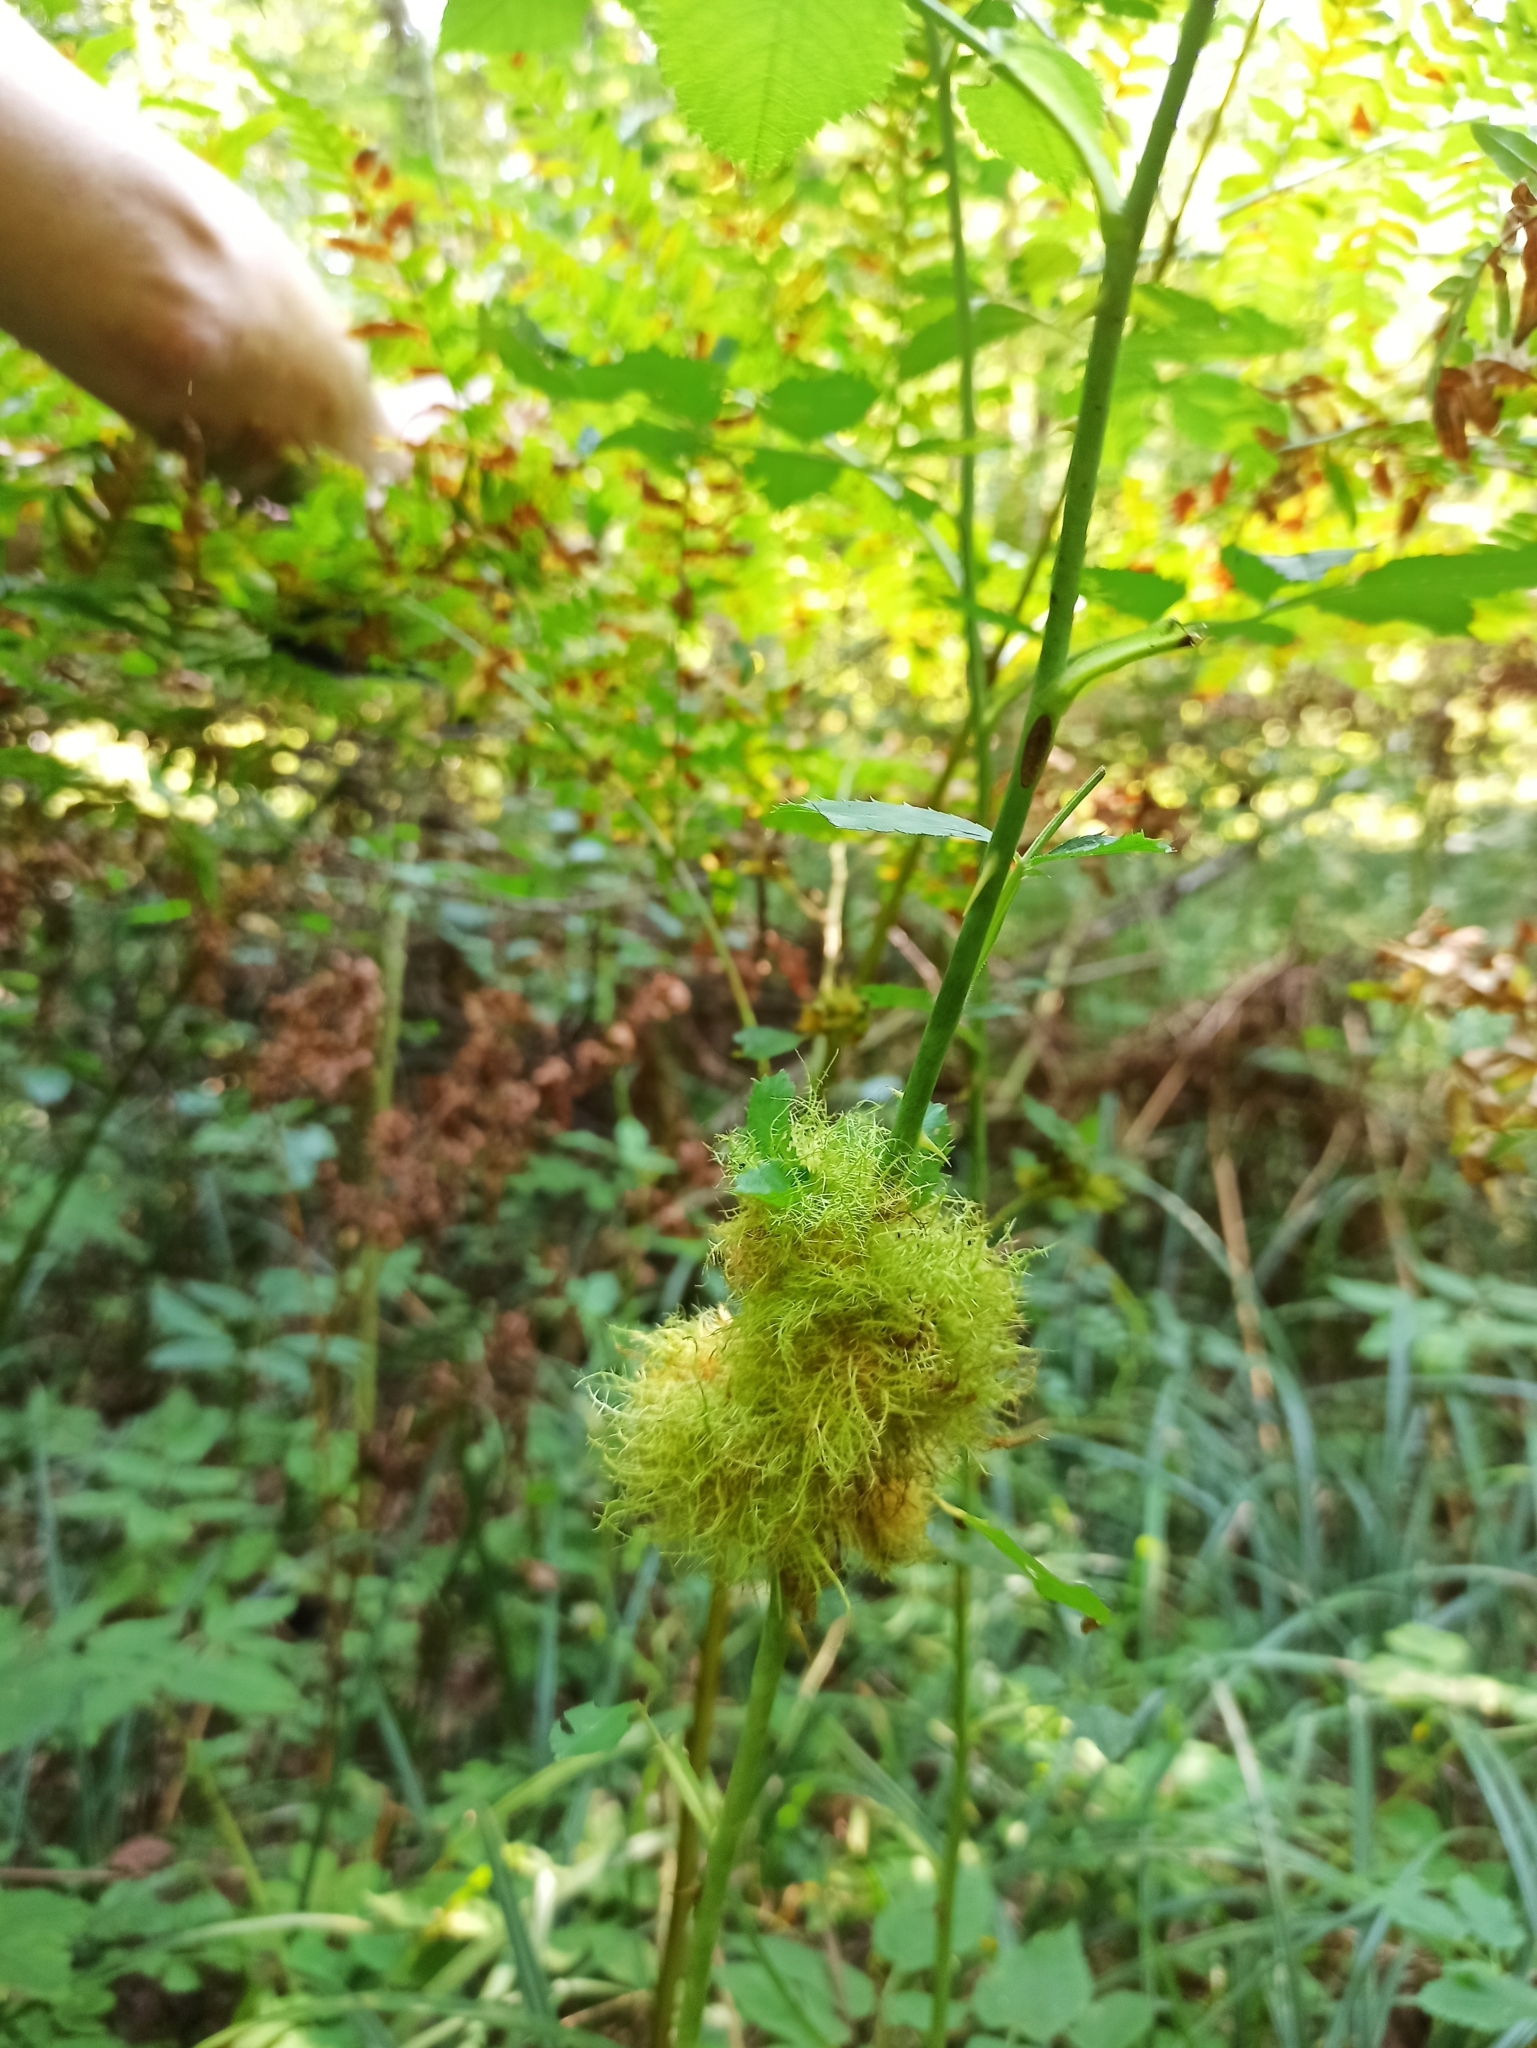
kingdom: Animalia
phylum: Arthropoda
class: Insecta
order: Hymenoptera
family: Cynipidae
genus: Diplolepis
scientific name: Diplolepis rosae
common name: Bedeguar gall
